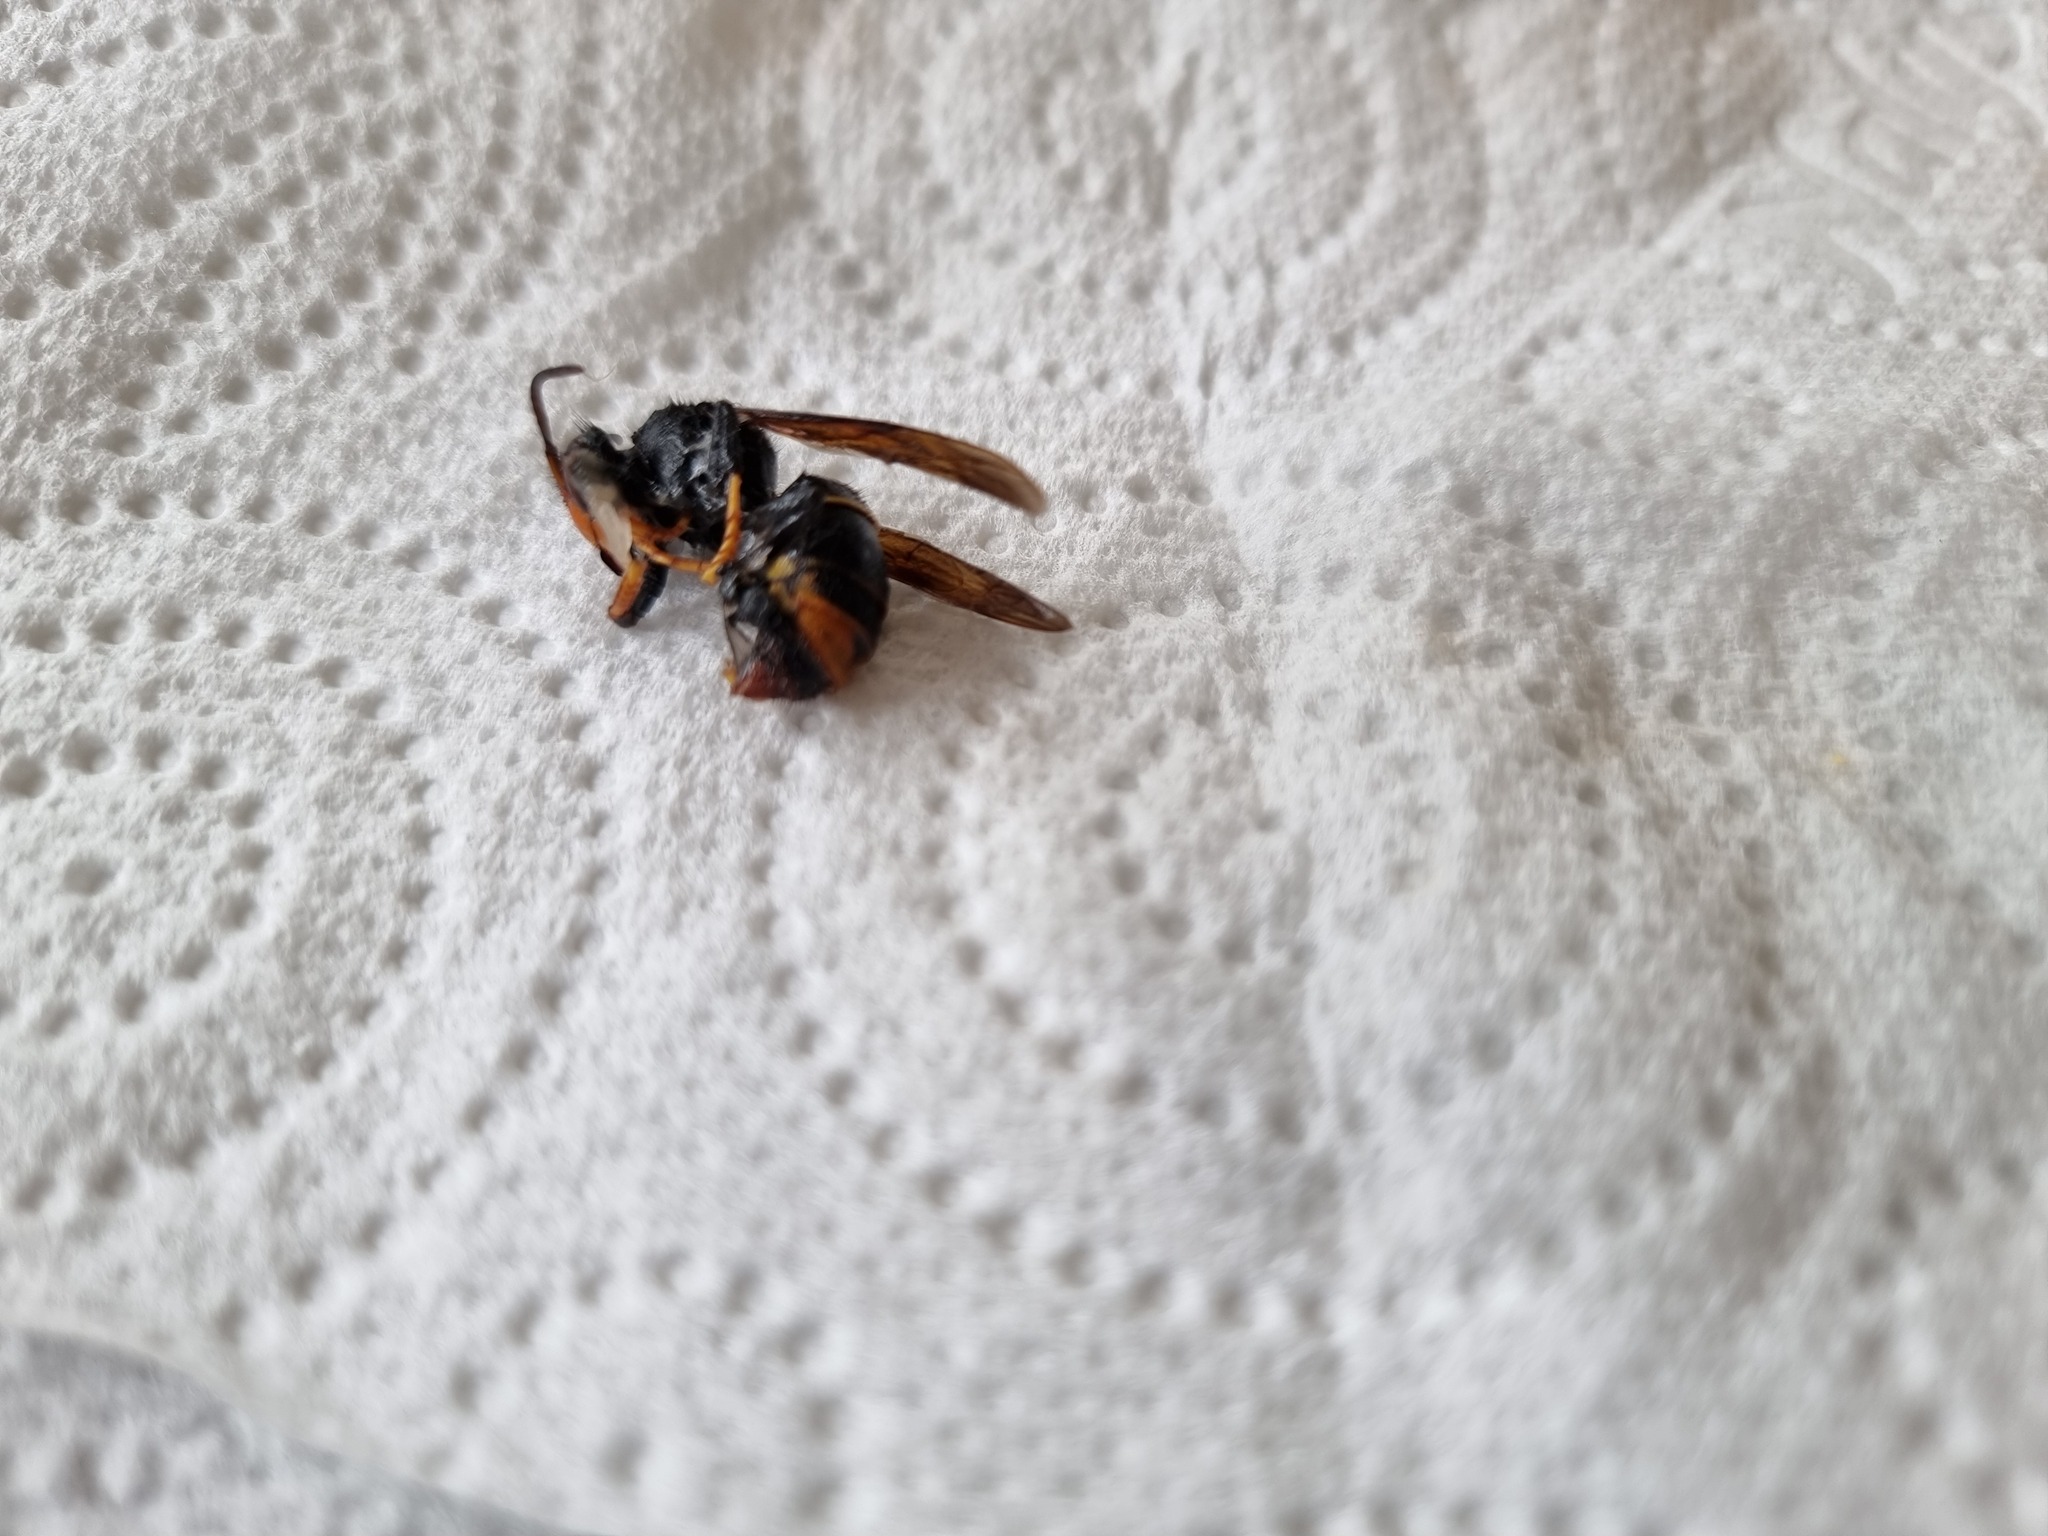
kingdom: Animalia
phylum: Arthropoda
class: Insecta
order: Hymenoptera
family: Vespidae
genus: Vespa
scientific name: Vespa velutina
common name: Asian hornet
